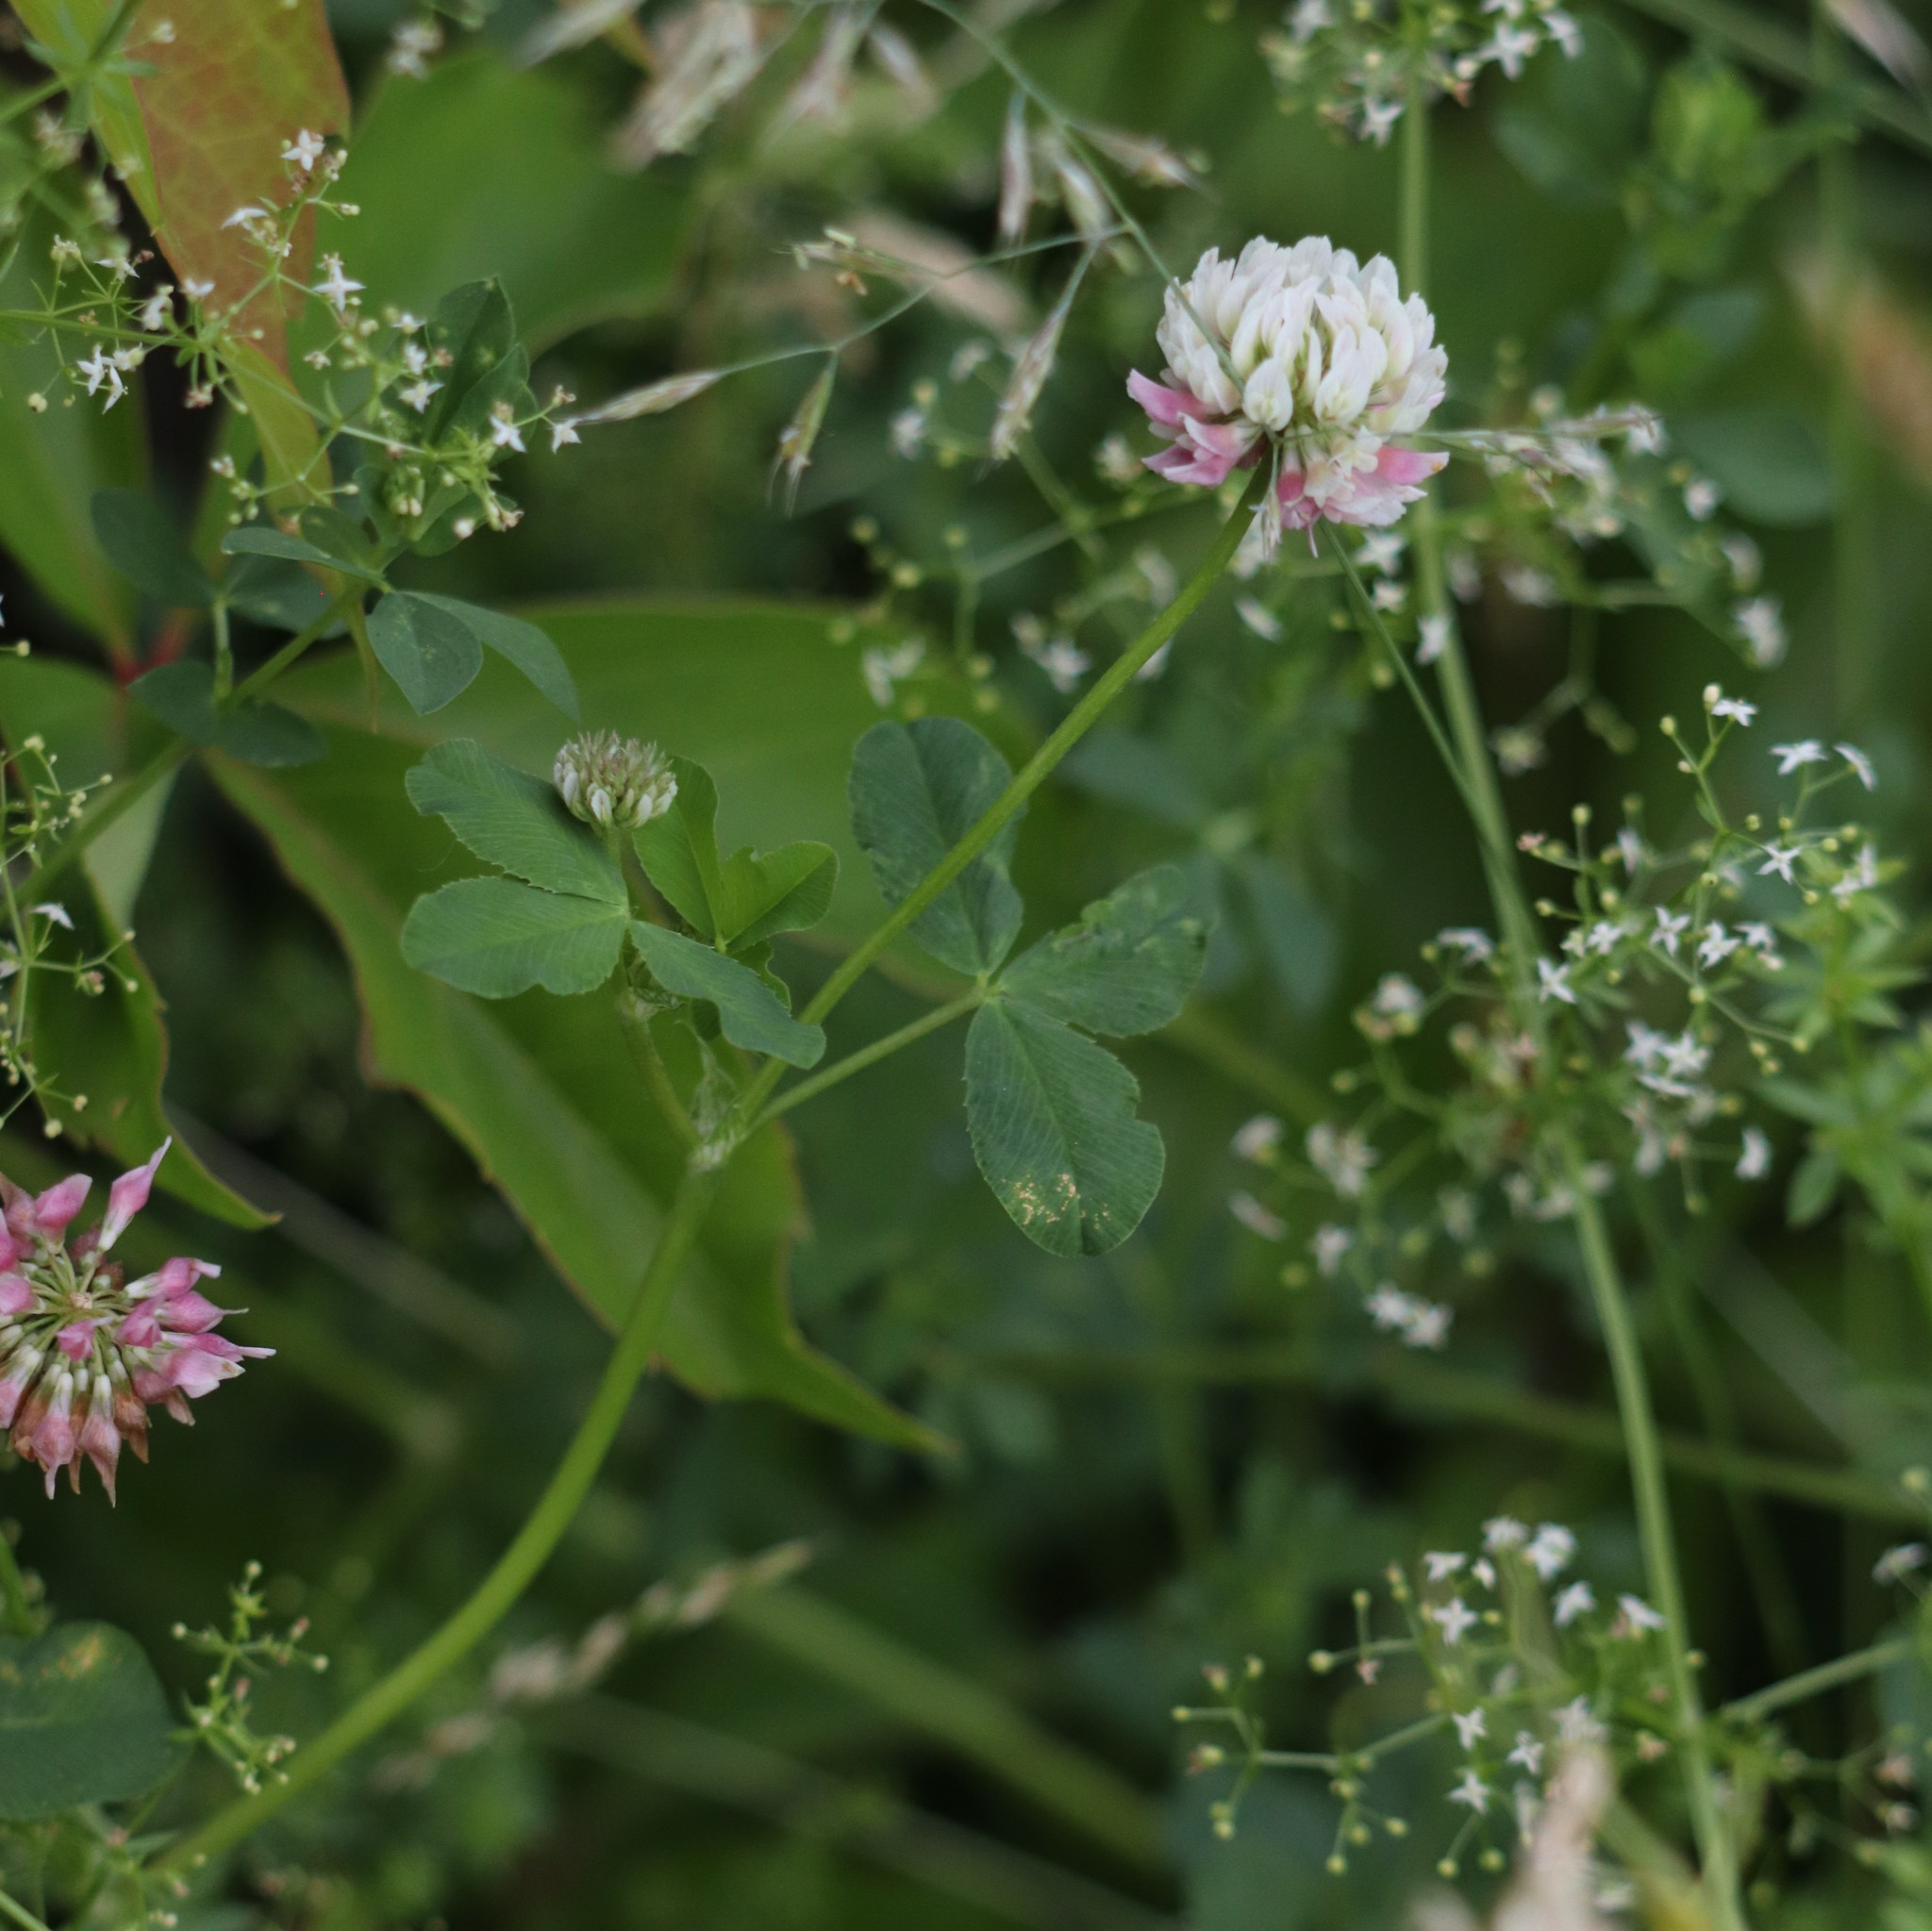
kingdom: Plantae
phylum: Tracheophyta
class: Magnoliopsida
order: Fabales
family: Fabaceae
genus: Trifolium
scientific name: Trifolium hybridum
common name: Alsike clover
